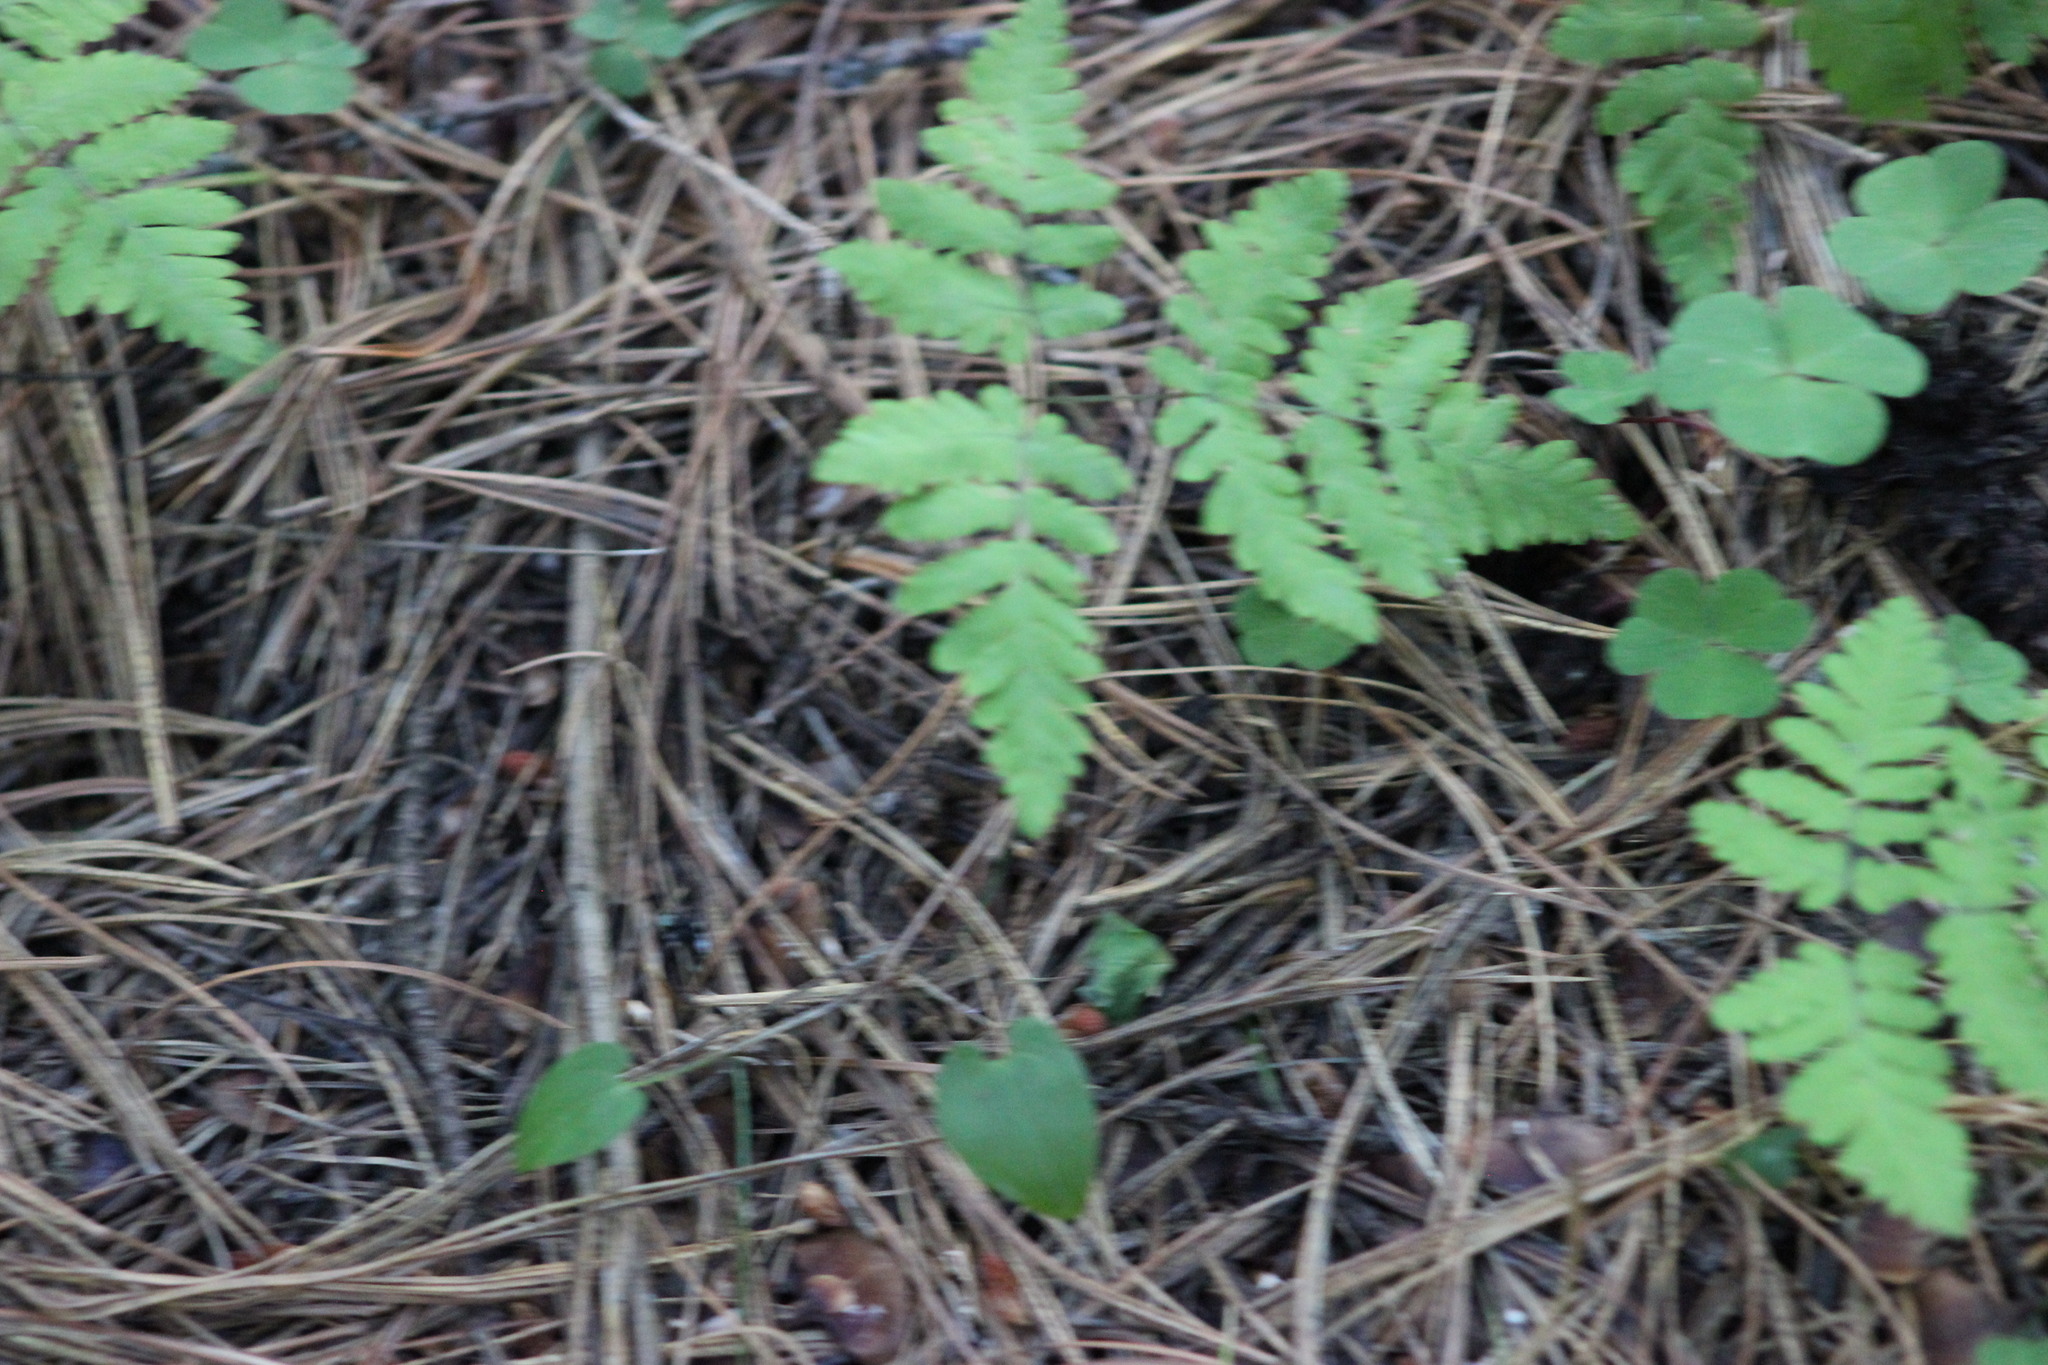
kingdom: Plantae
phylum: Tracheophyta
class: Polypodiopsida
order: Polypodiales
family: Cystopteridaceae
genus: Gymnocarpium
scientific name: Gymnocarpium dryopteris
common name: Oak fern
